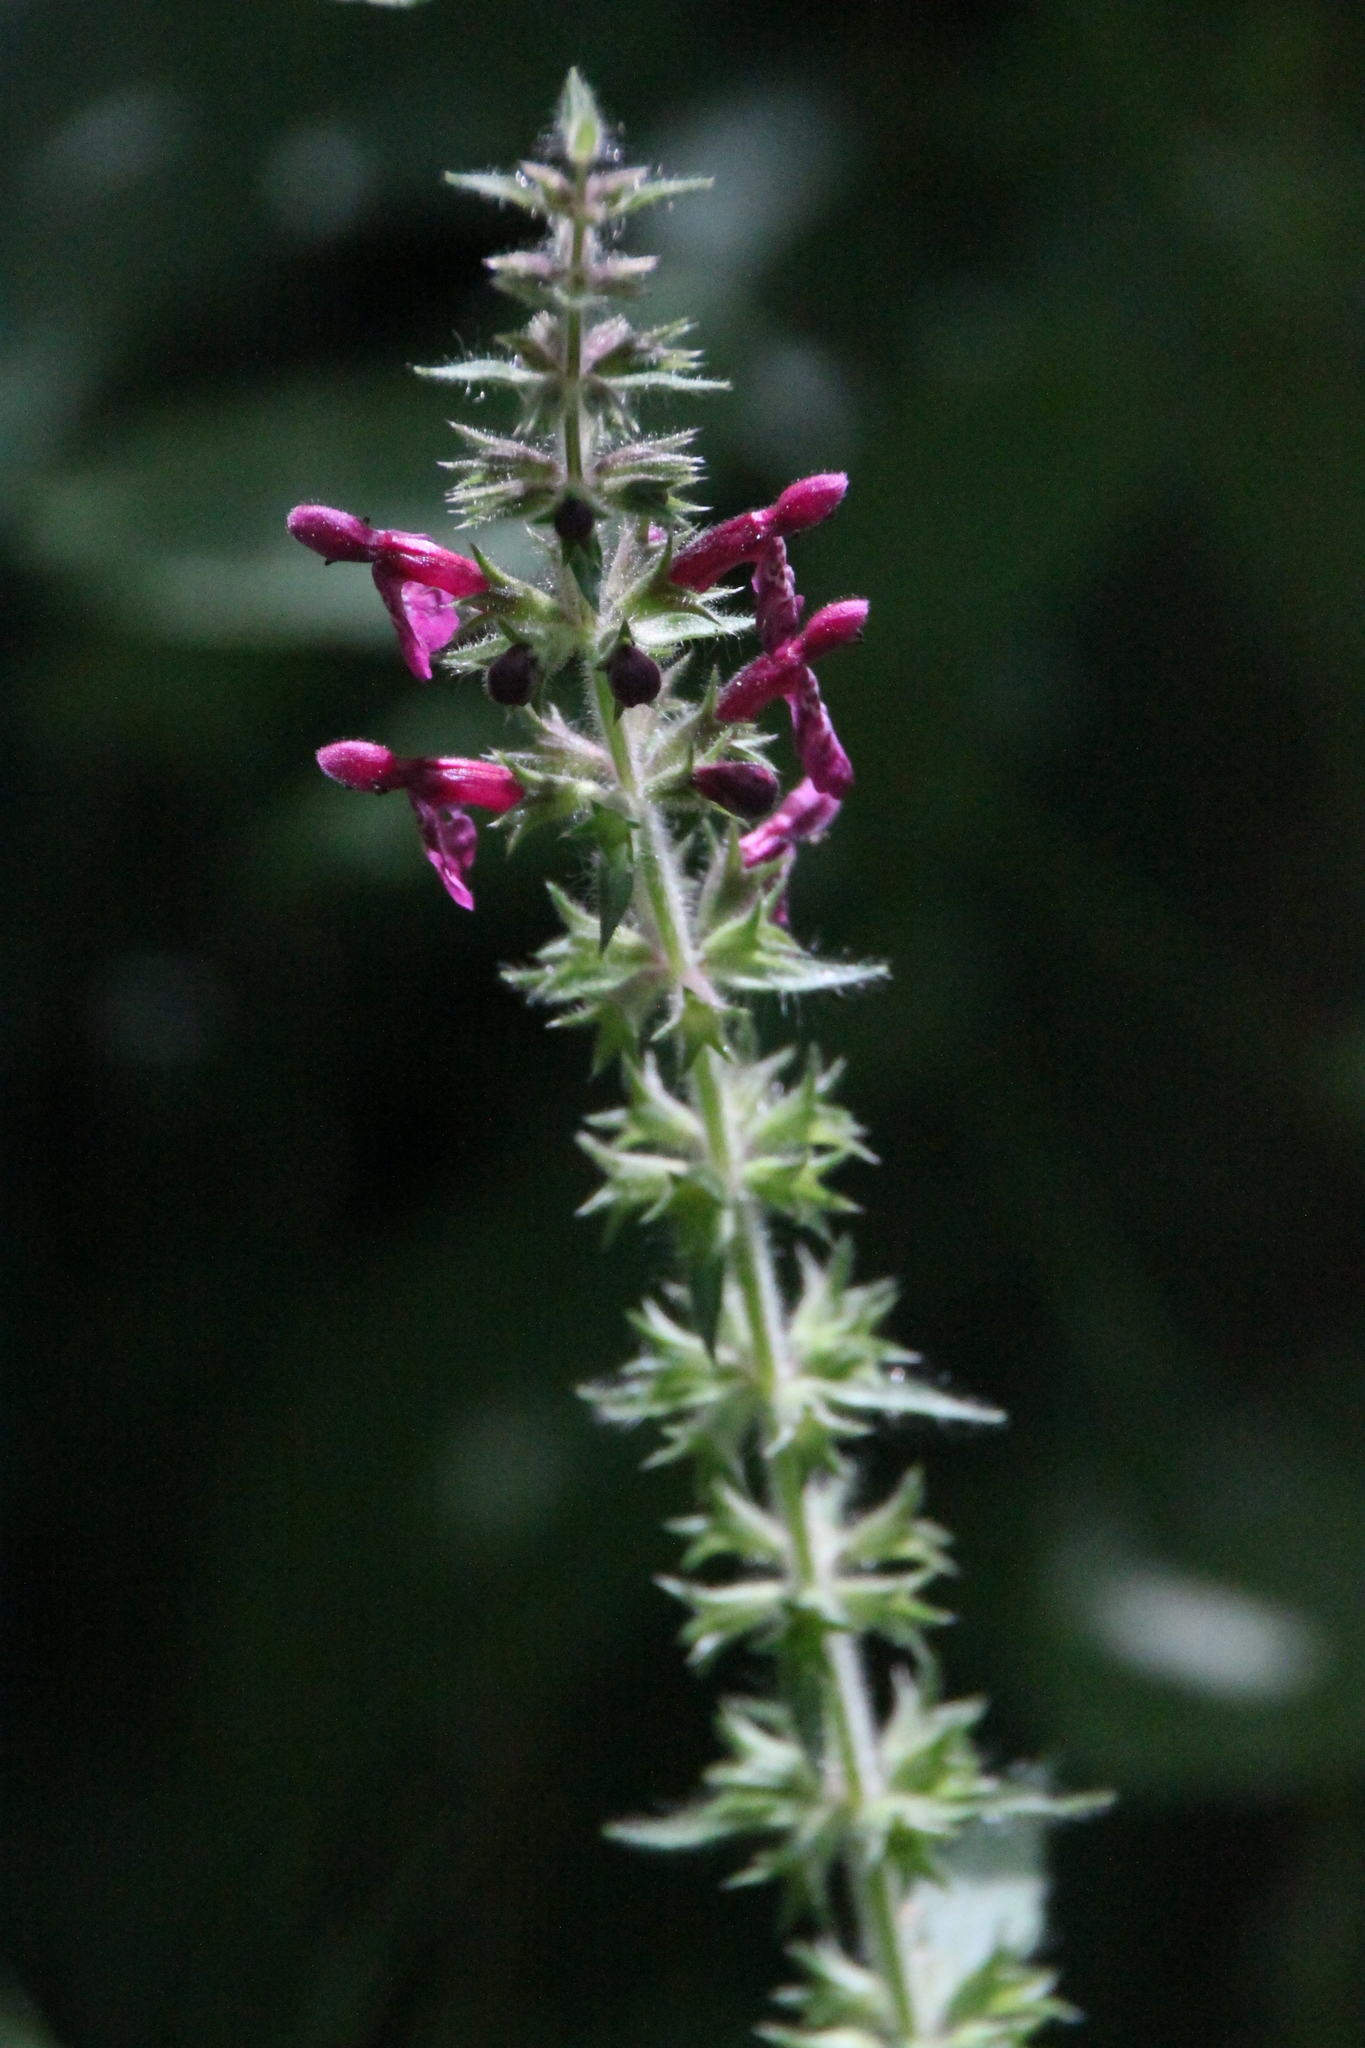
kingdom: Plantae
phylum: Tracheophyta
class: Magnoliopsida
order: Lamiales
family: Lamiaceae
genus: Stachys
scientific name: Stachys sylvatica
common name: Hedge woundwort
